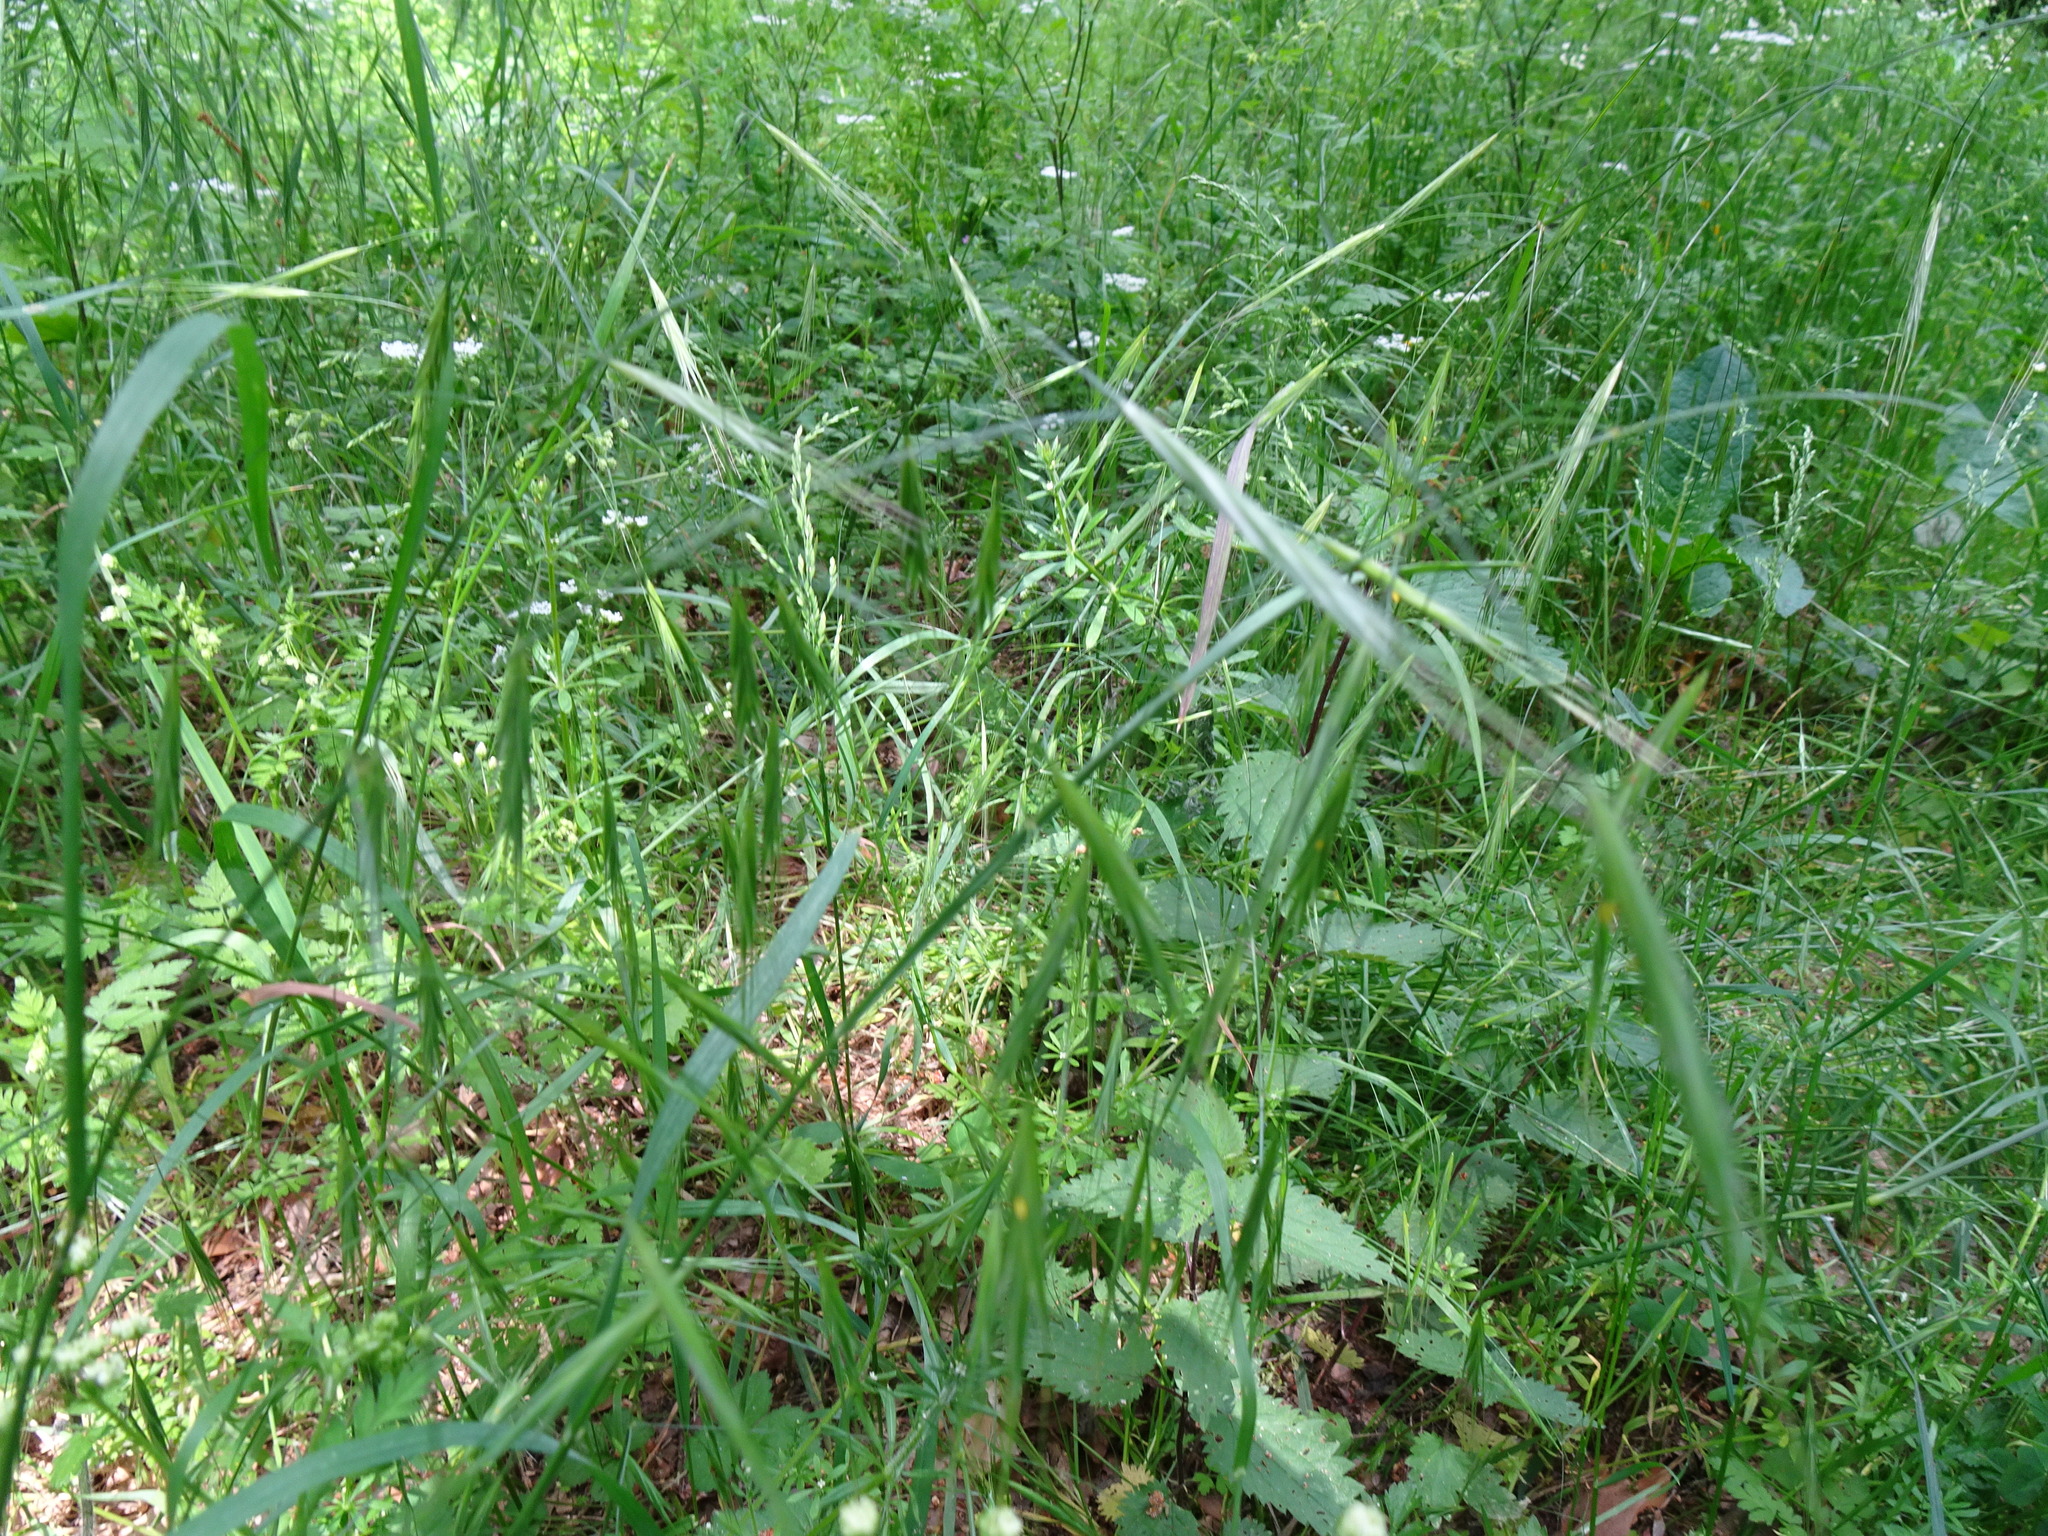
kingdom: Plantae
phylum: Tracheophyta
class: Liliopsida
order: Poales
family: Poaceae
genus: Bromus
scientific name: Bromus sterilis
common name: Poverty brome
